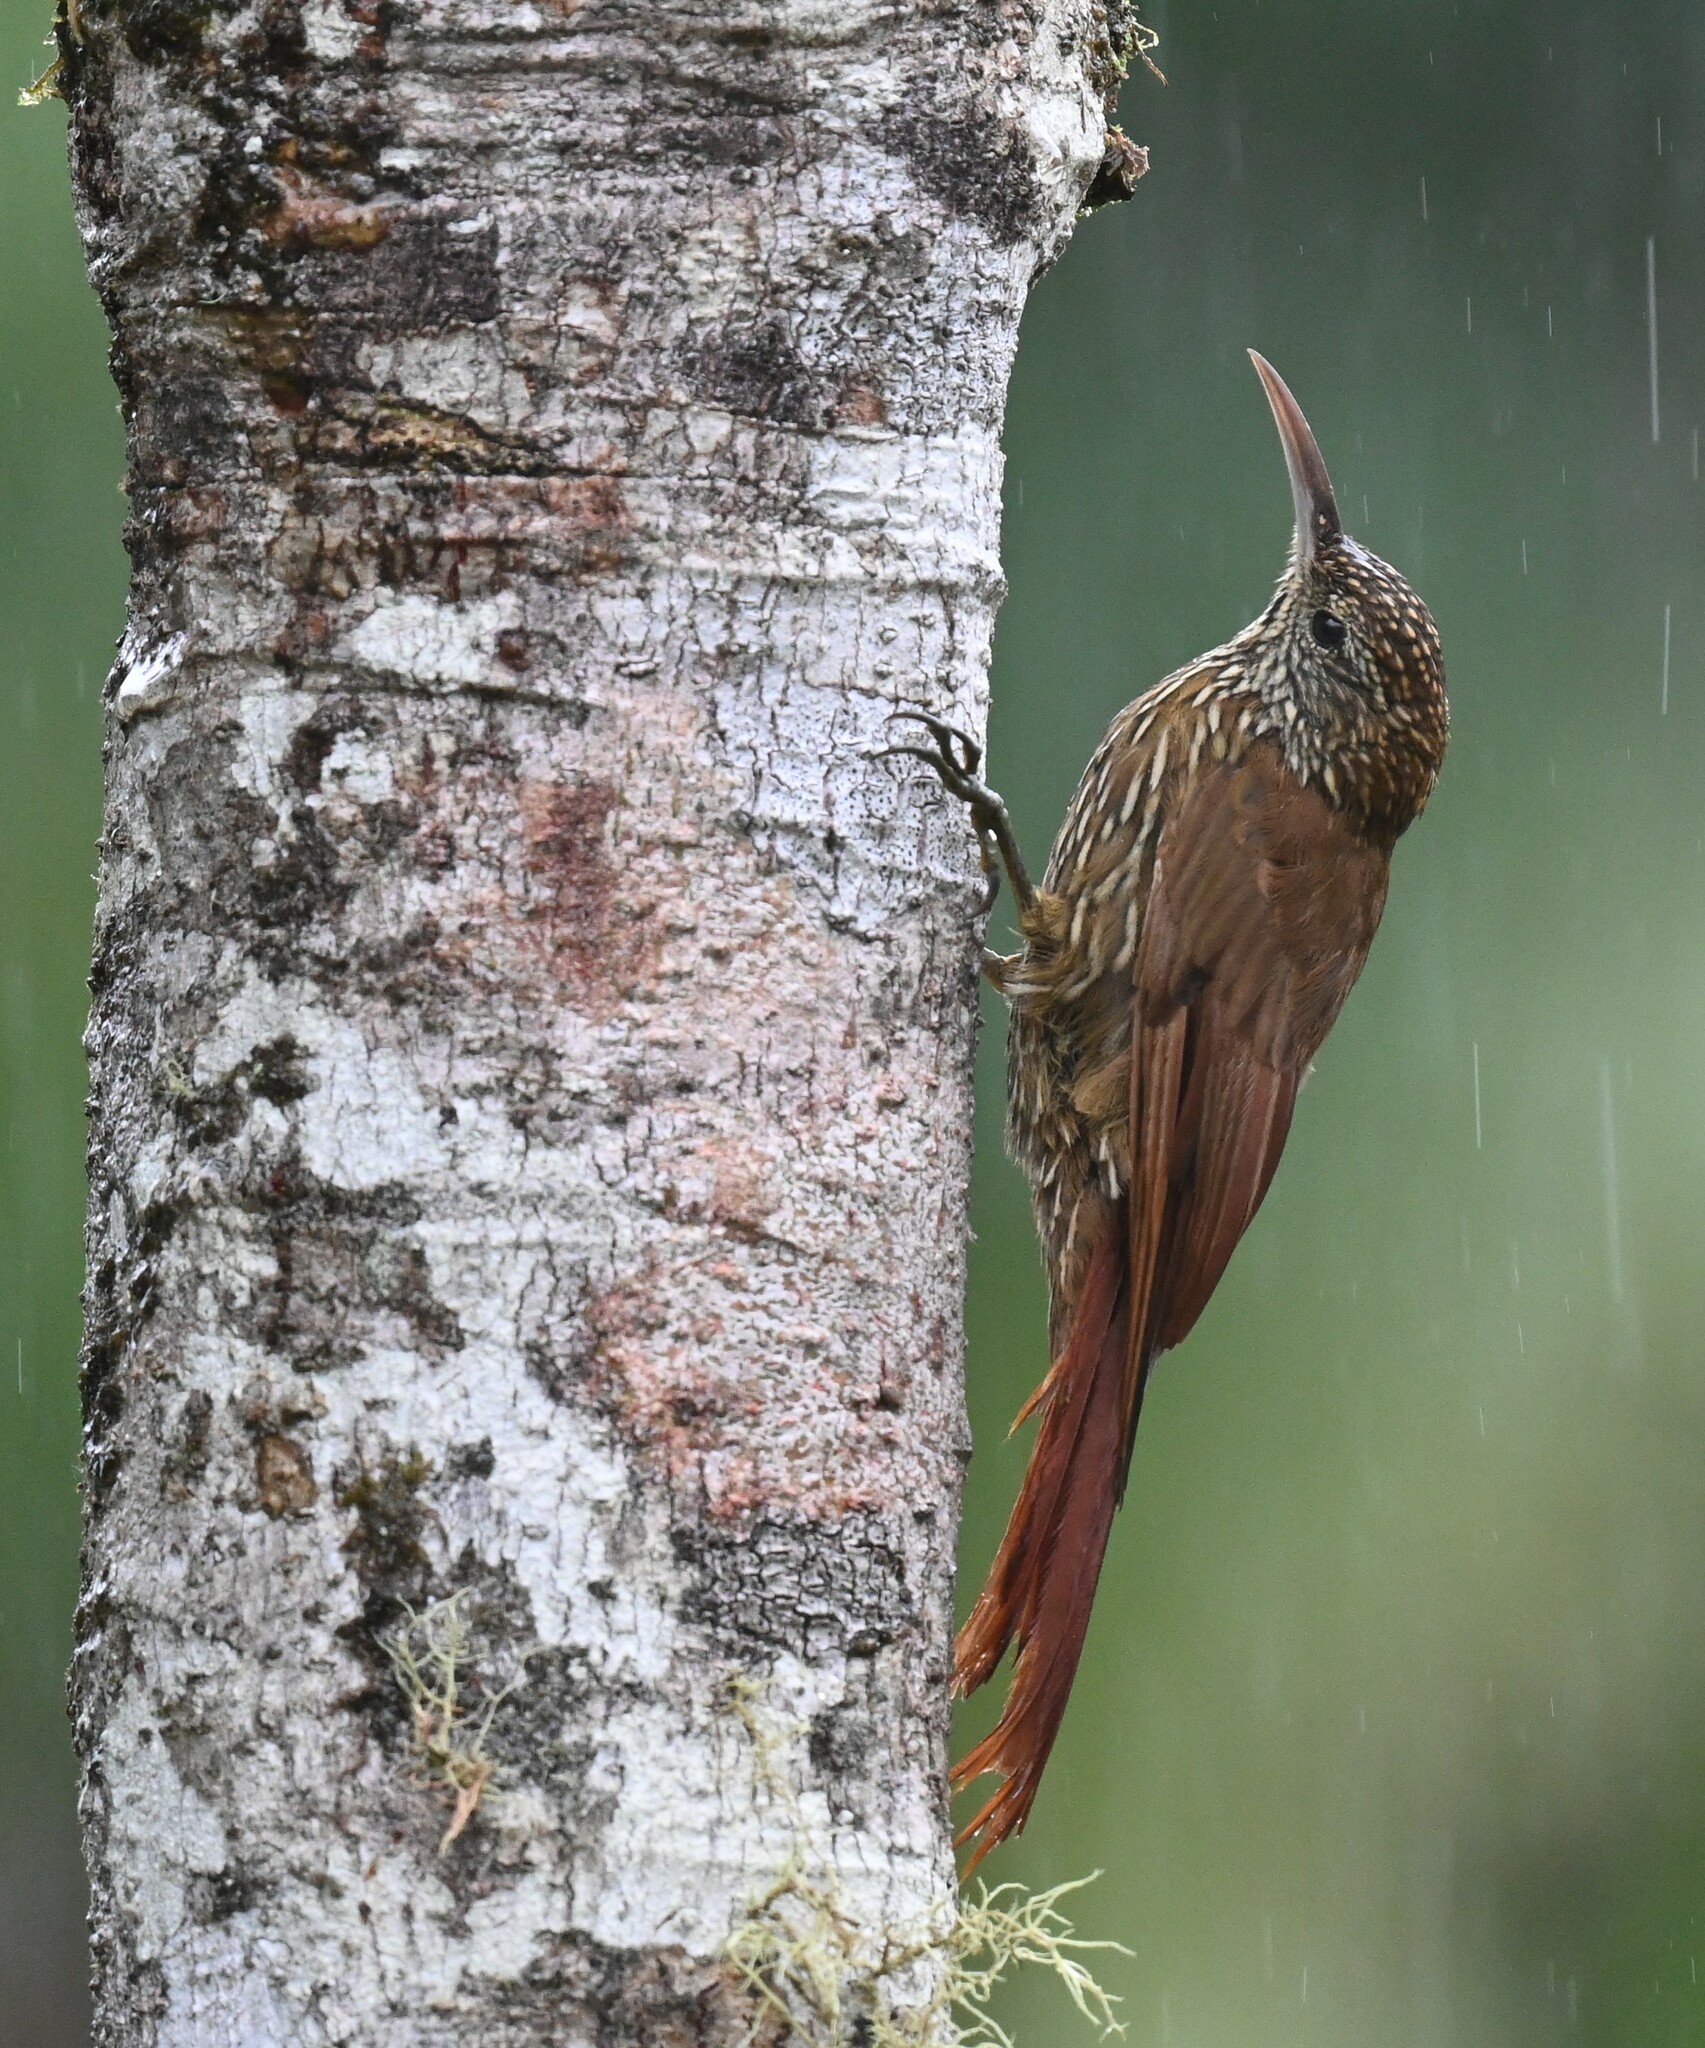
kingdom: Animalia
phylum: Chordata
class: Aves
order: Passeriformes
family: Furnariidae
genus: Lepidocolaptes
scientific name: Lepidocolaptes lacrymiger
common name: Montane woodcreeper
